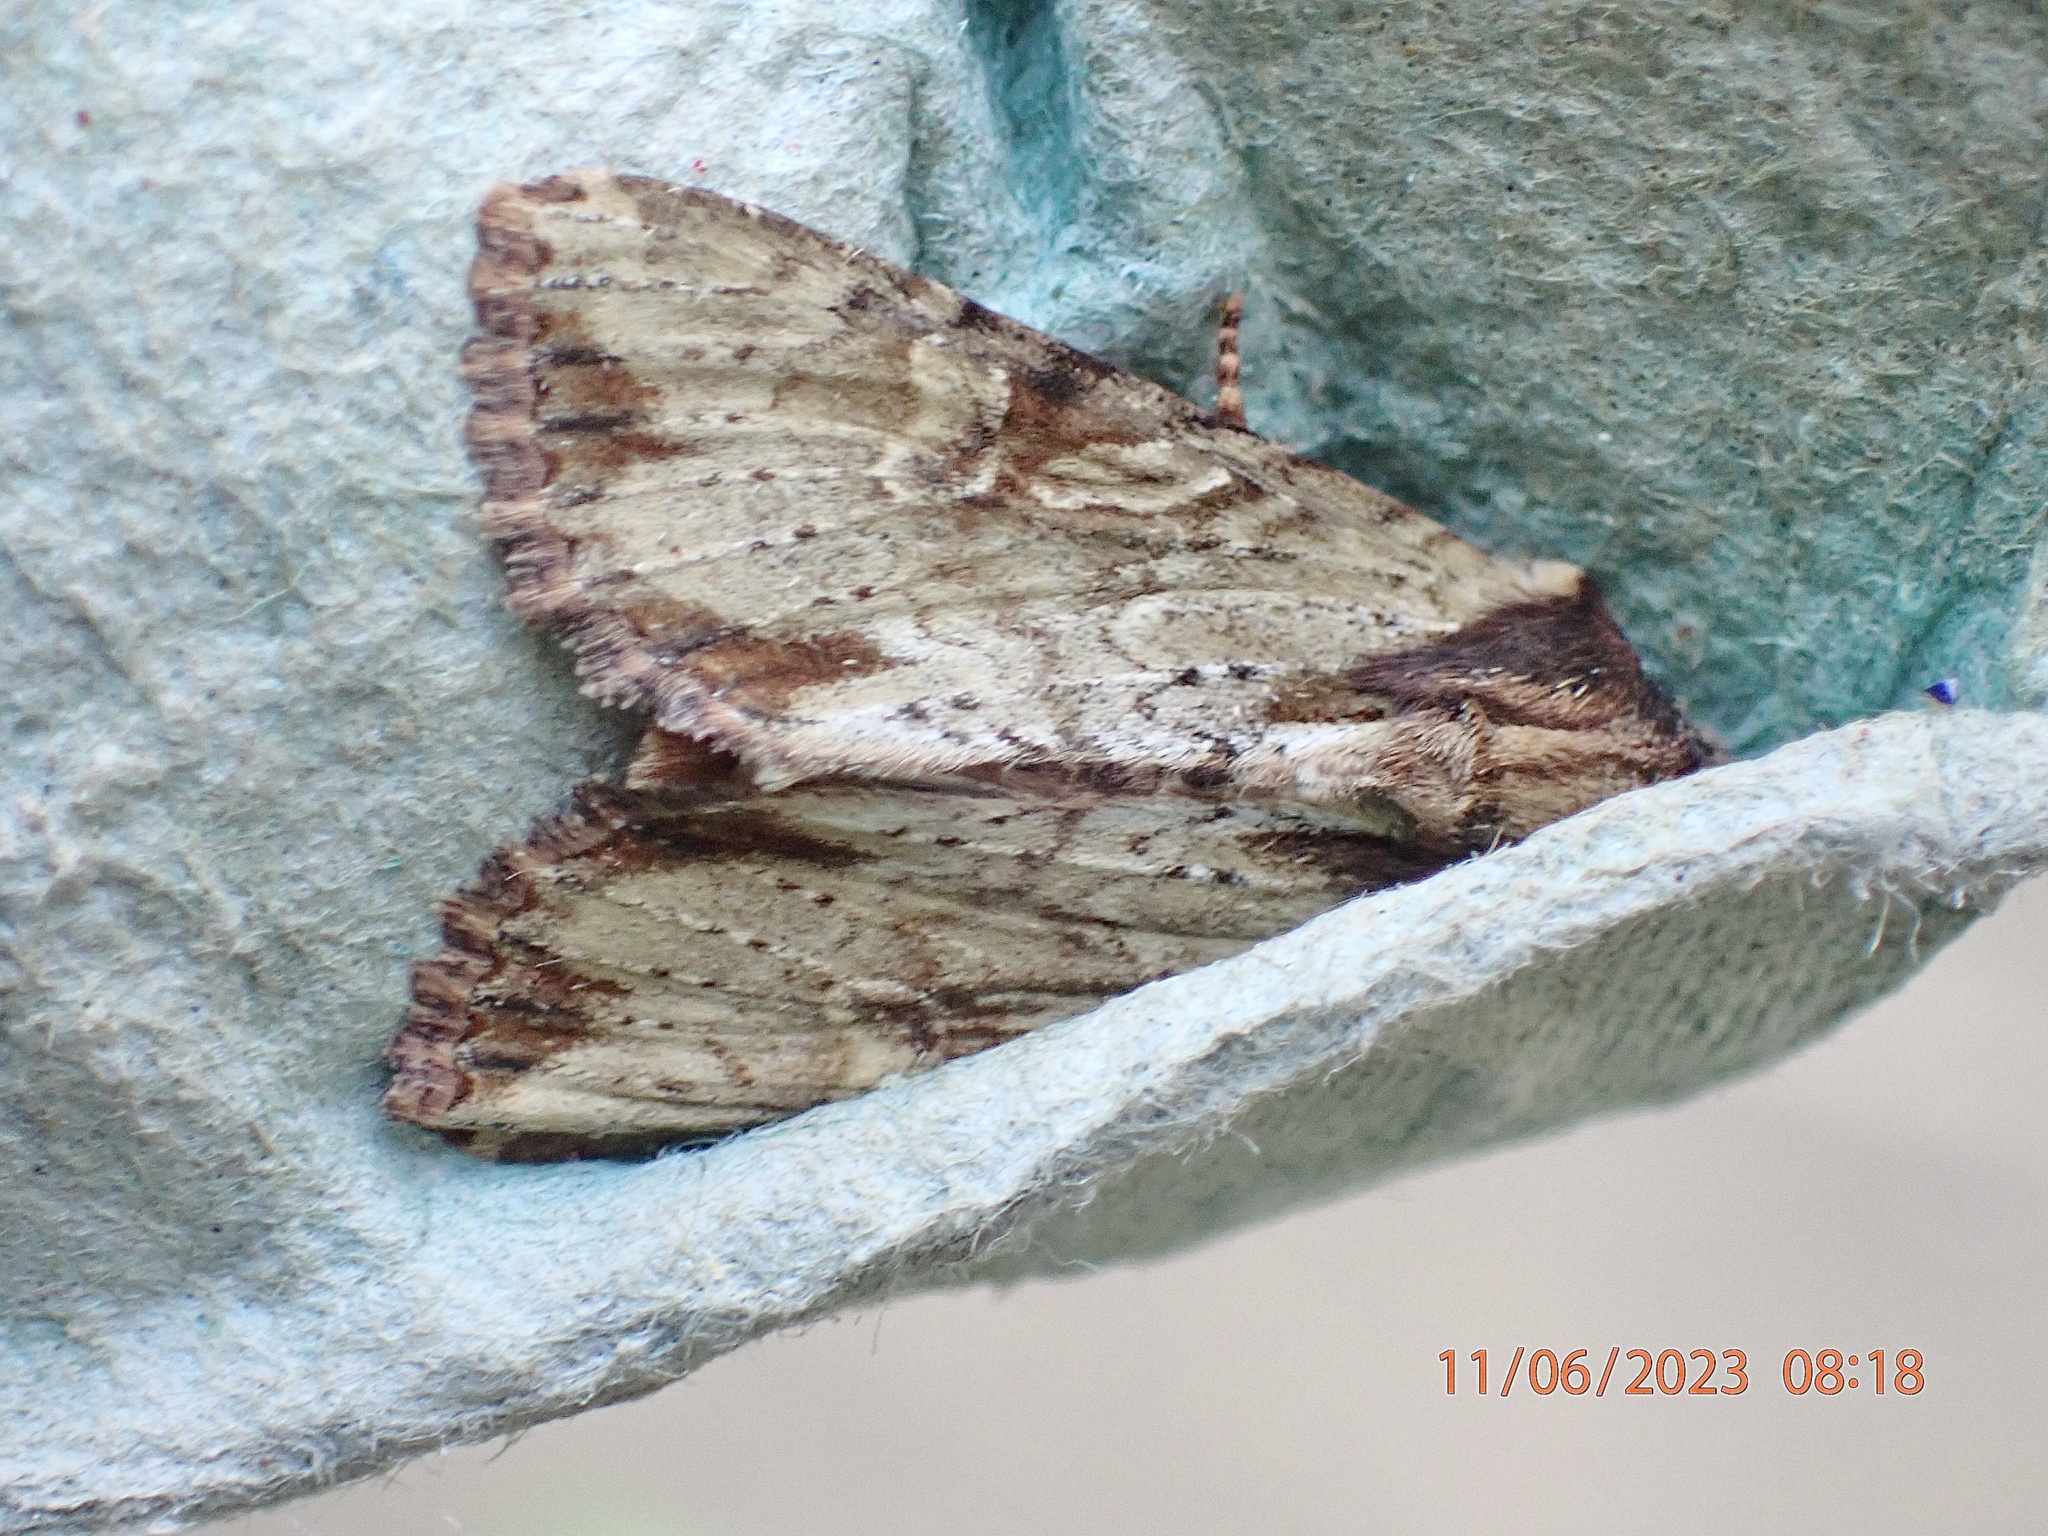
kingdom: Animalia
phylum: Arthropoda
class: Insecta
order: Lepidoptera
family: Noctuidae
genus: Apamea
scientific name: Apamea crenata
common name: Clouded-bordered brindle
